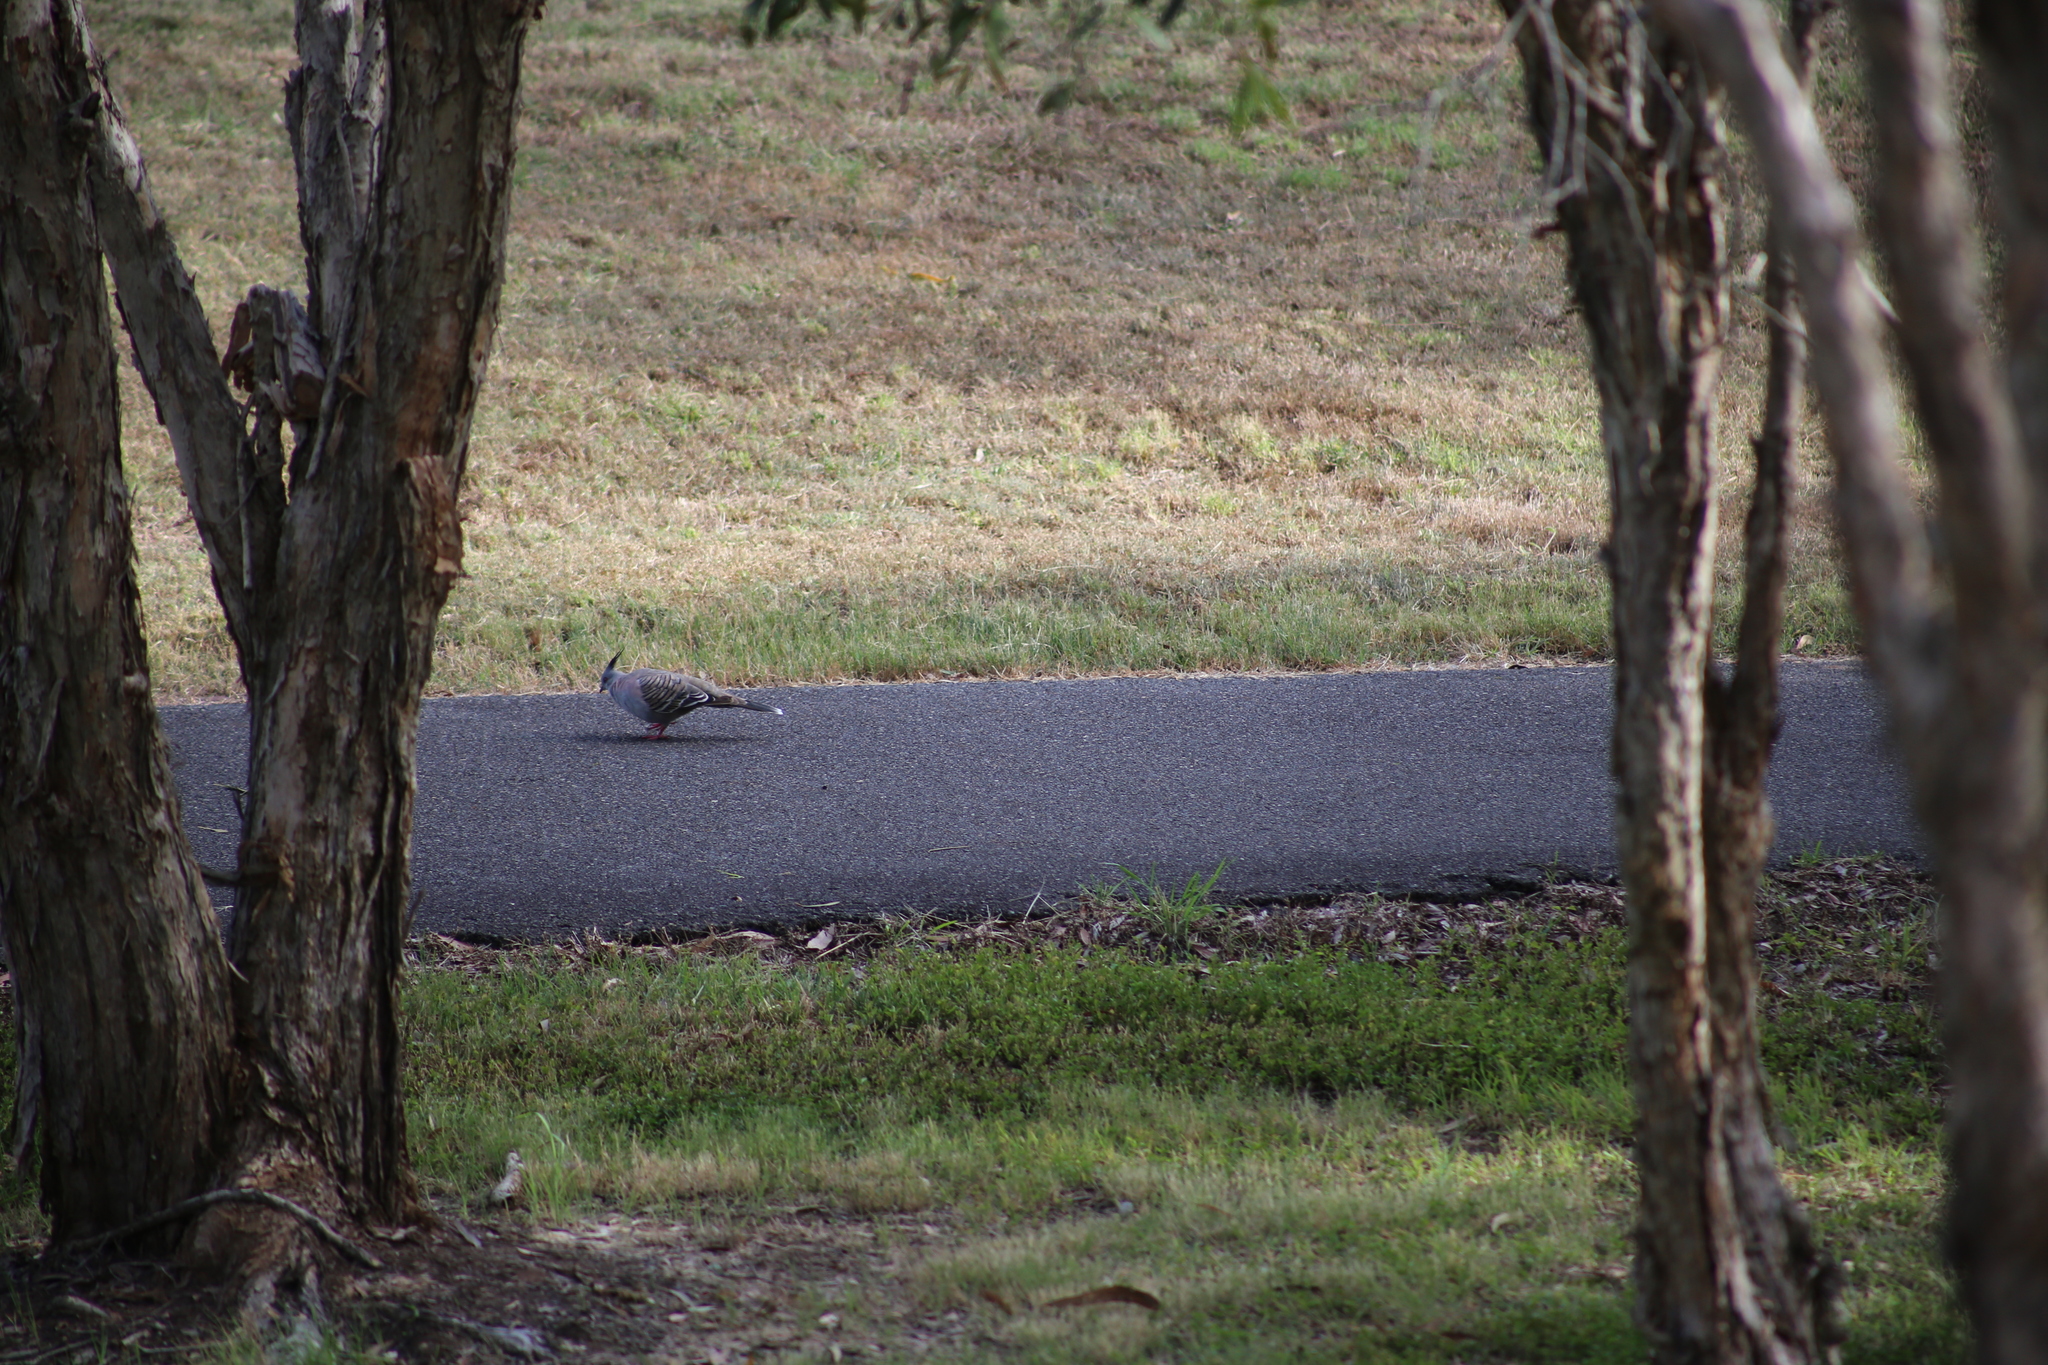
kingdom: Animalia
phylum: Chordata
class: Aves
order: Columbiformes
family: Columbidae
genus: Ocyphaps
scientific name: Ocyphaps lophotes
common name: Crested pigeon
